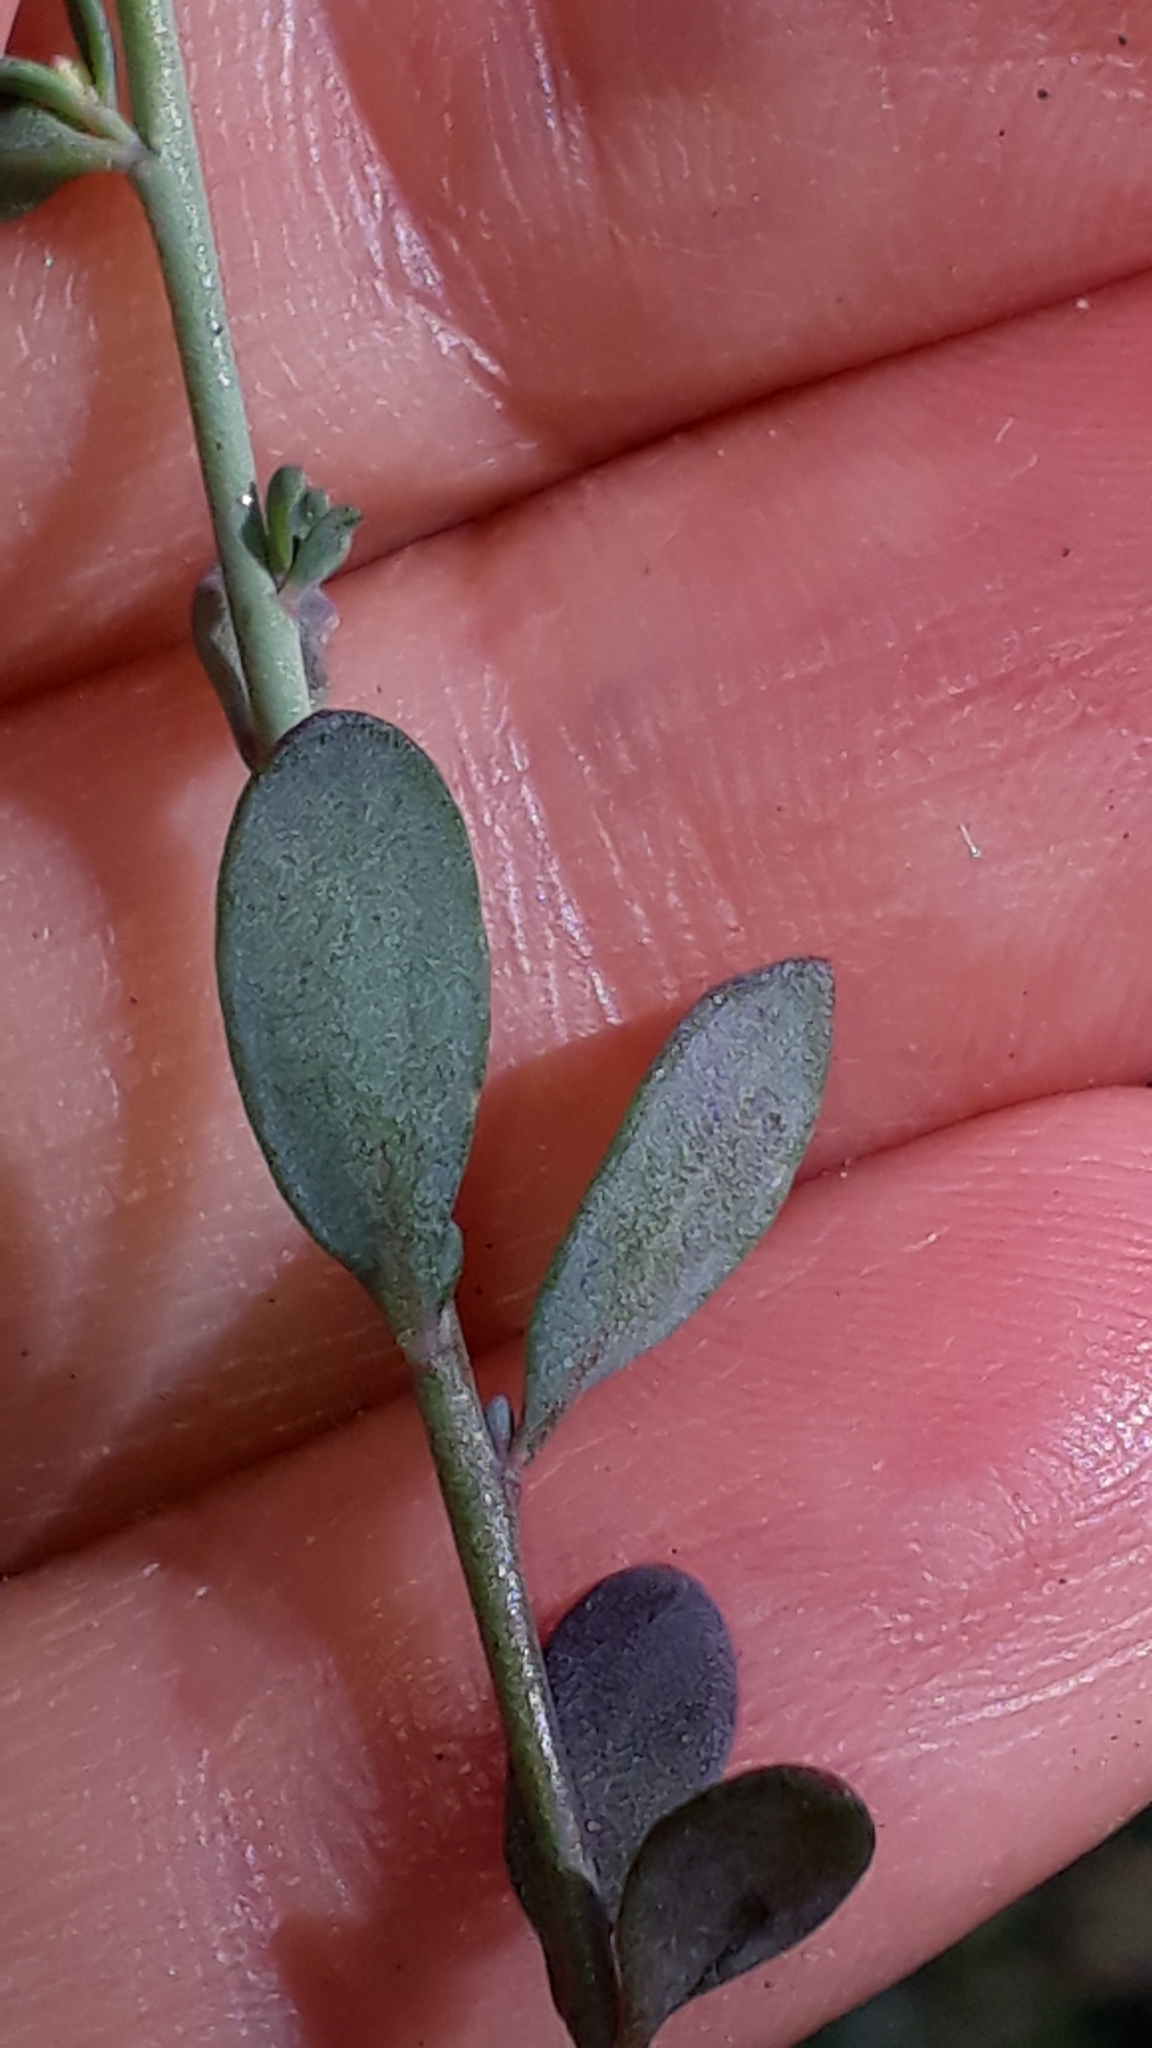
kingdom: Plantae
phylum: Tracheophyta
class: Magnoliopsida
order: Brassicales
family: Brassicaceae
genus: Aethionema
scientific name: Aethionema saxatile
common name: Burnt candytuft
